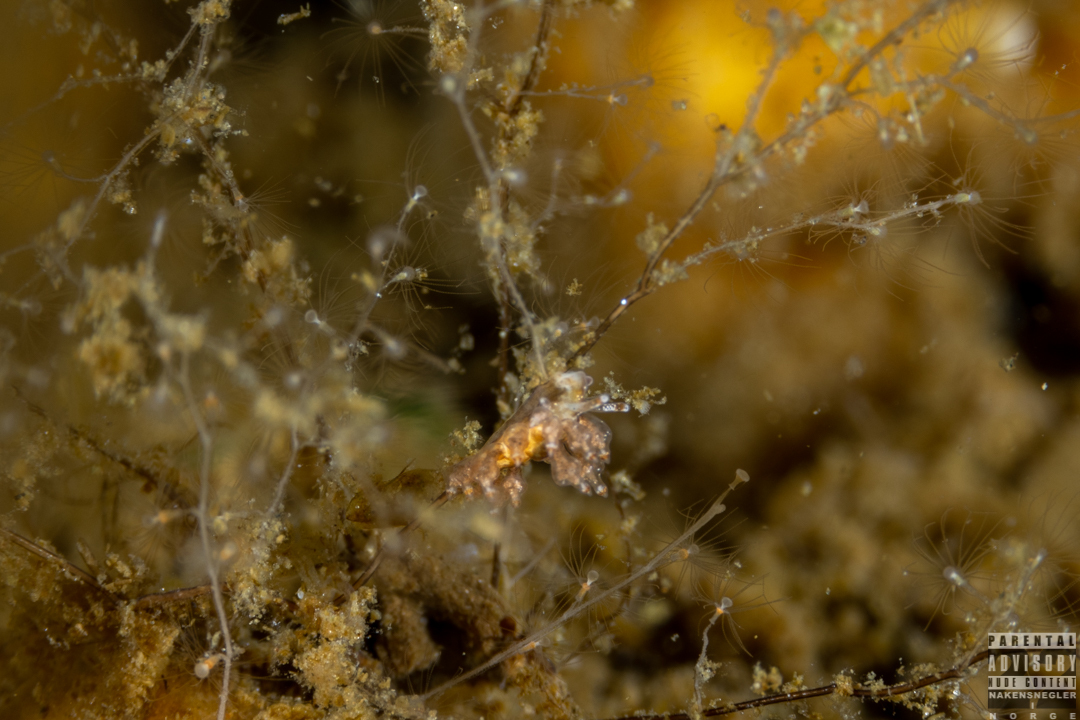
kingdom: Animalia
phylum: Mollusca
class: Gastropoda
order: Nudibranchia
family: Eubranchidae
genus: Eubranchus
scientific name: Eubranchus scintillans
